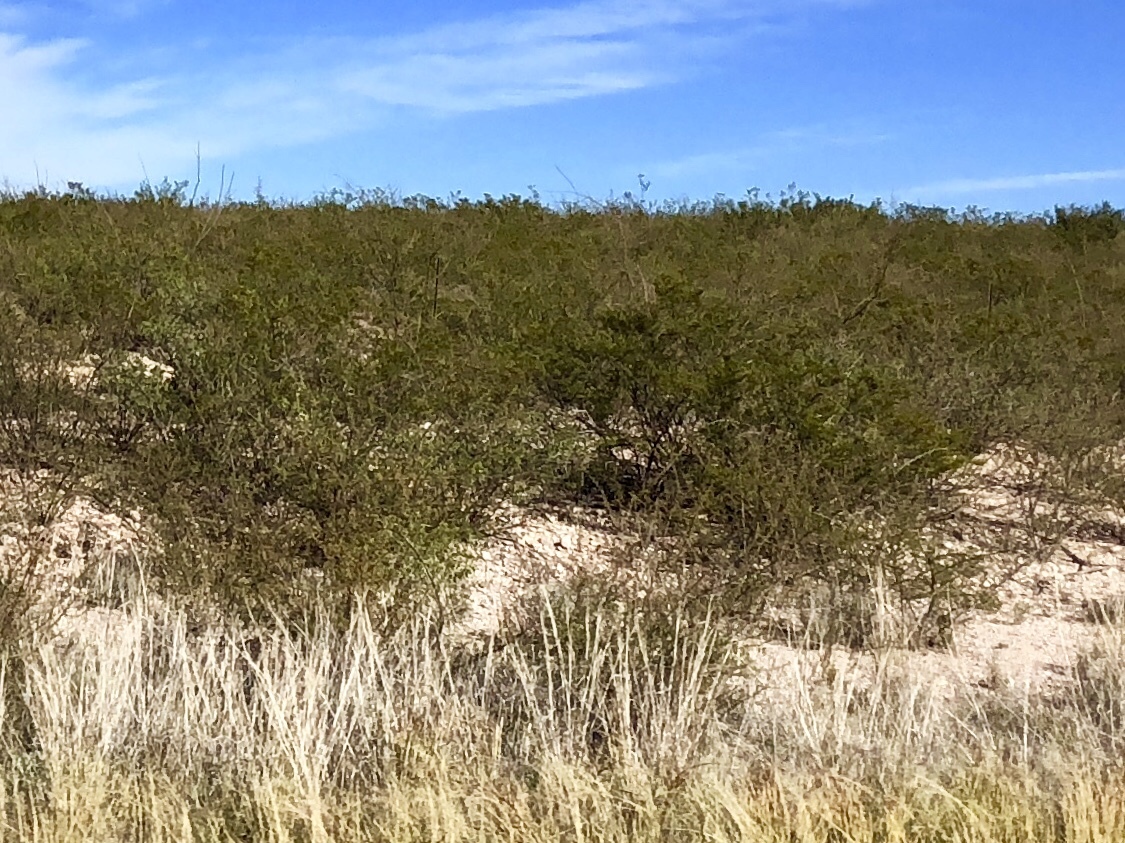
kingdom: Plantae
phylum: Tracheophyta
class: Magnoliopsida
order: Zygophyllales
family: Zygophyllaceae
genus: Larrea
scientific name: Larrea tridentata
